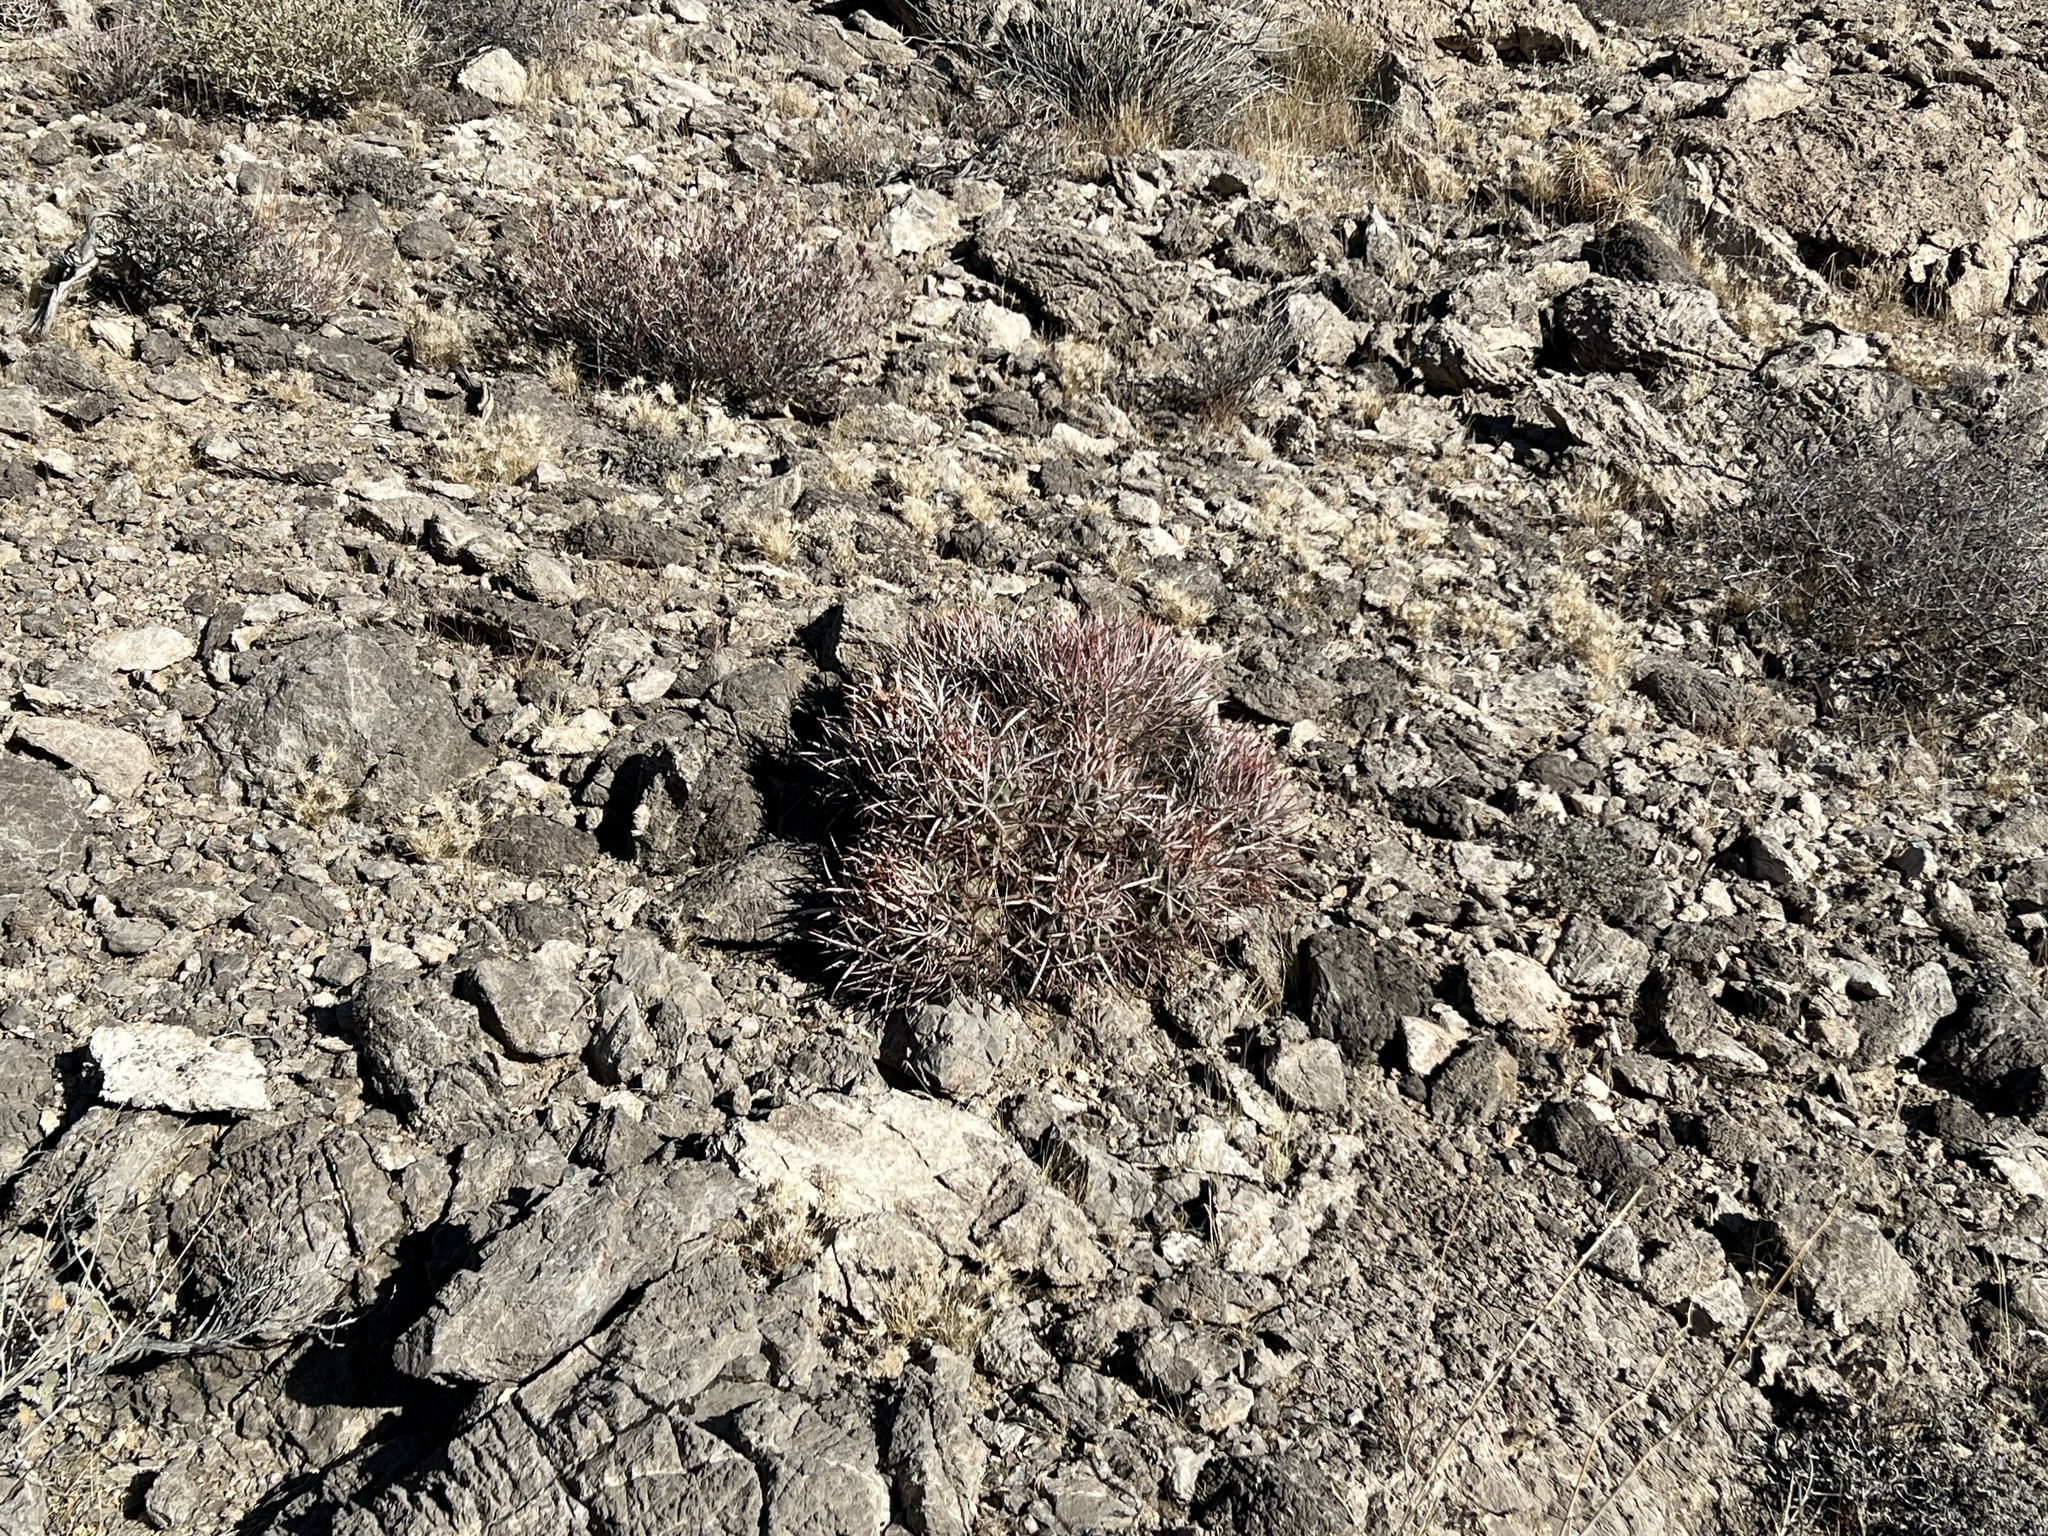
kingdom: Plantae
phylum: Tracheophyta
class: Magnoliopsida
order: Caryophyllales
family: Cactaceae
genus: Echinocactus
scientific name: Echinocactus polycephalus
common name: Cottontop cactus
